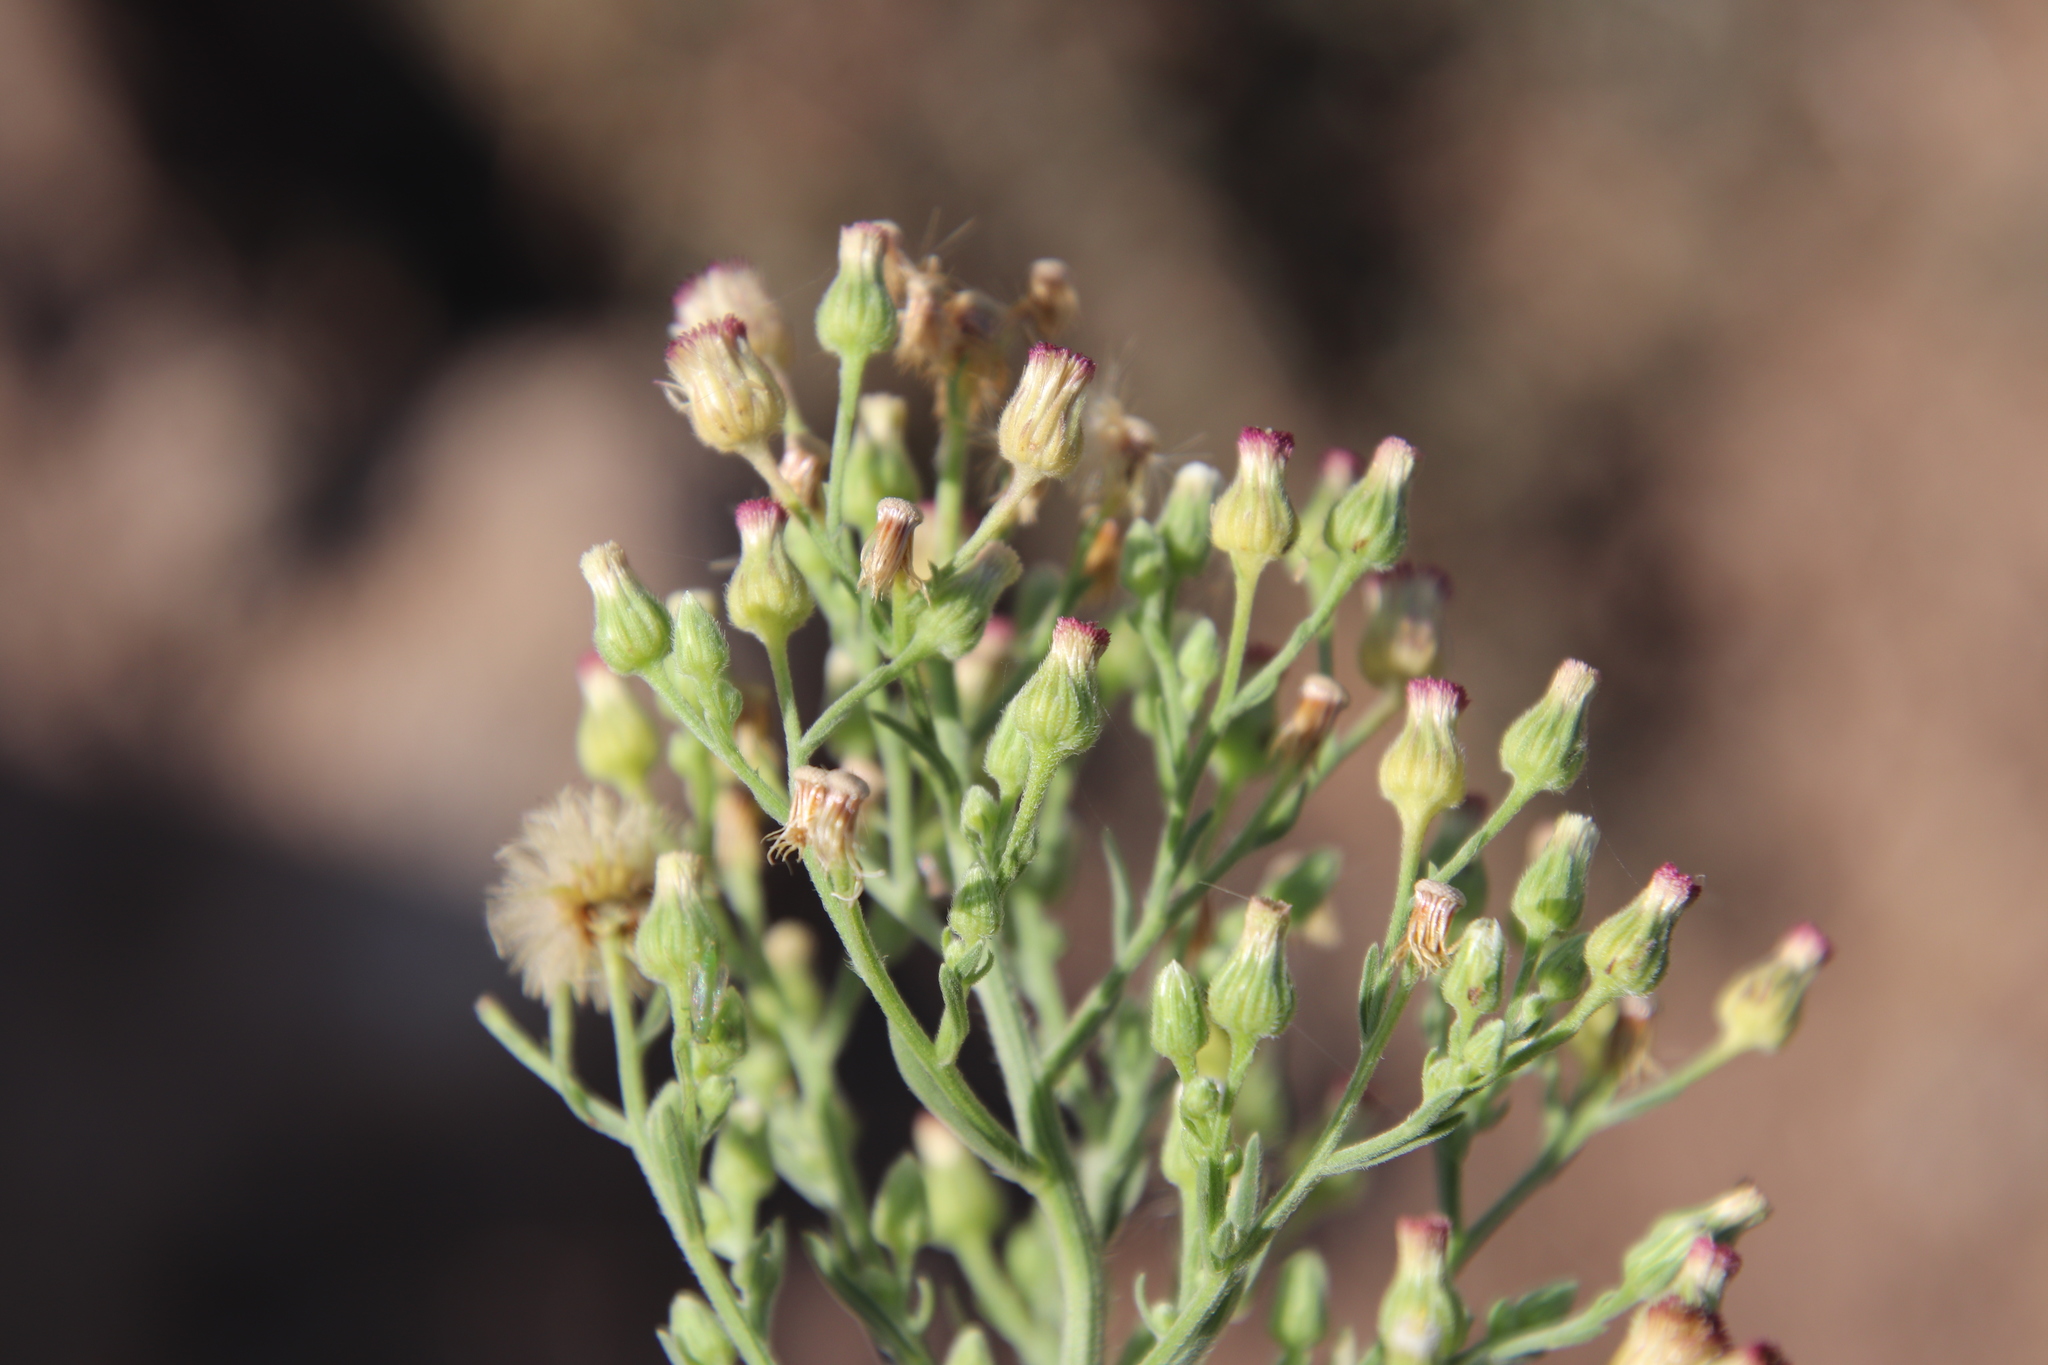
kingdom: Plantae
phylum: Tracheophyta
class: Magnoliopsida
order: Asterales
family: Asteraceae
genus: Erigeron
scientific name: Erigeron sumatrensis
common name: Daisy
